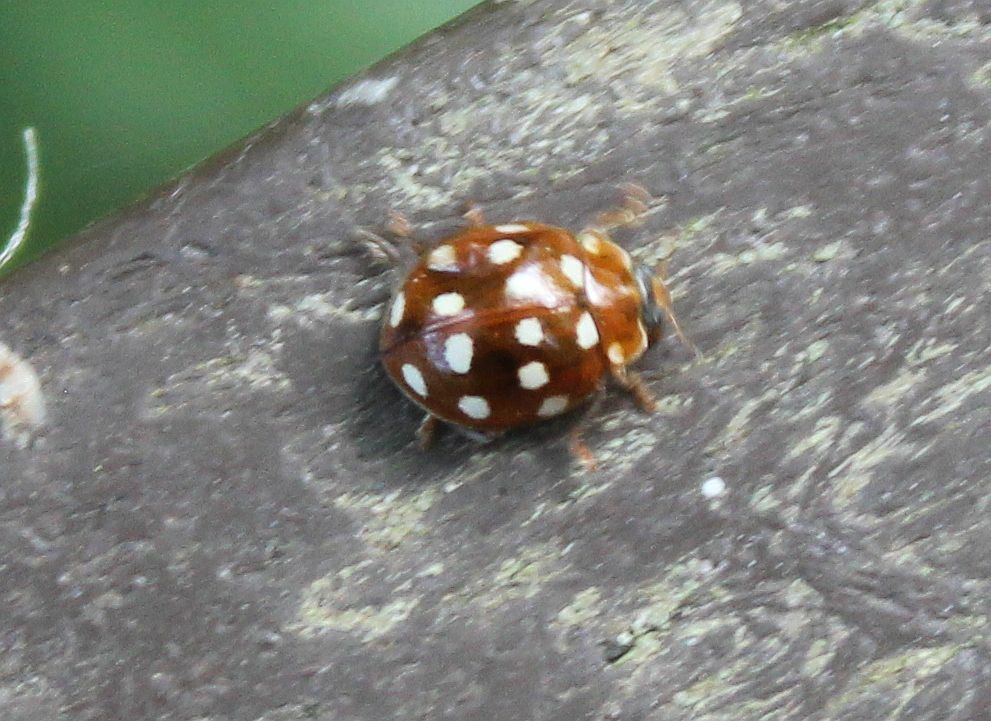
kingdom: Animalia
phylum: Arthropoda
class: Insecta
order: Coleoptera
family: Coccinellidae
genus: Calvia
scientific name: Calvia quatuordecimguttata
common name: Cream-spot ladybird
